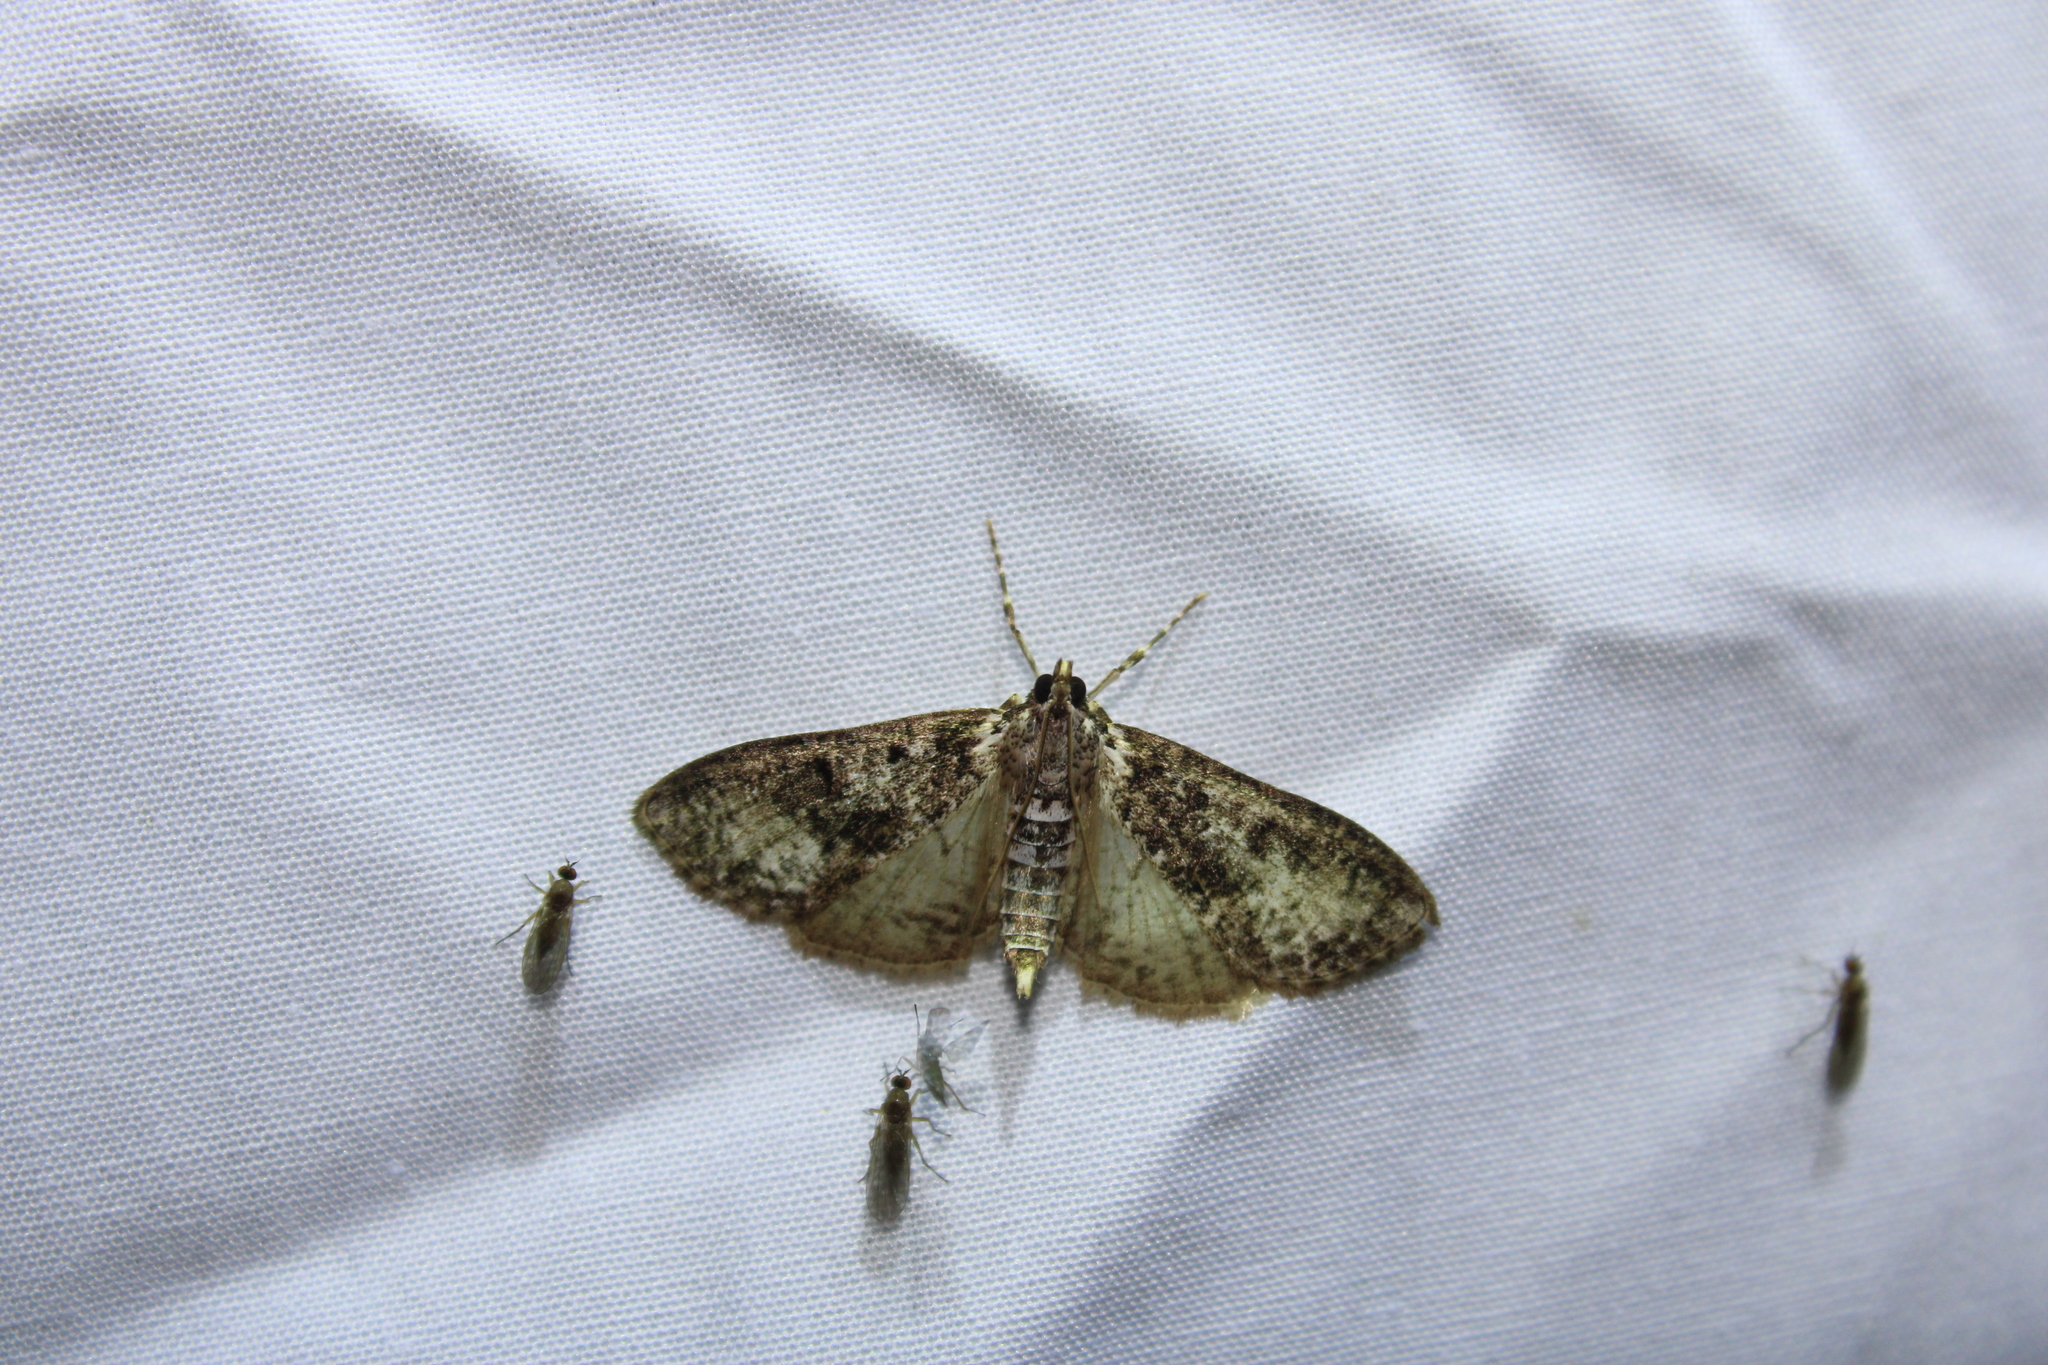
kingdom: Animalia
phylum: Arthropoda
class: Insecta
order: Lepidoptera
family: Crambidae
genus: Palpita
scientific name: Palpita magniferalis
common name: Splendid palpita moth
